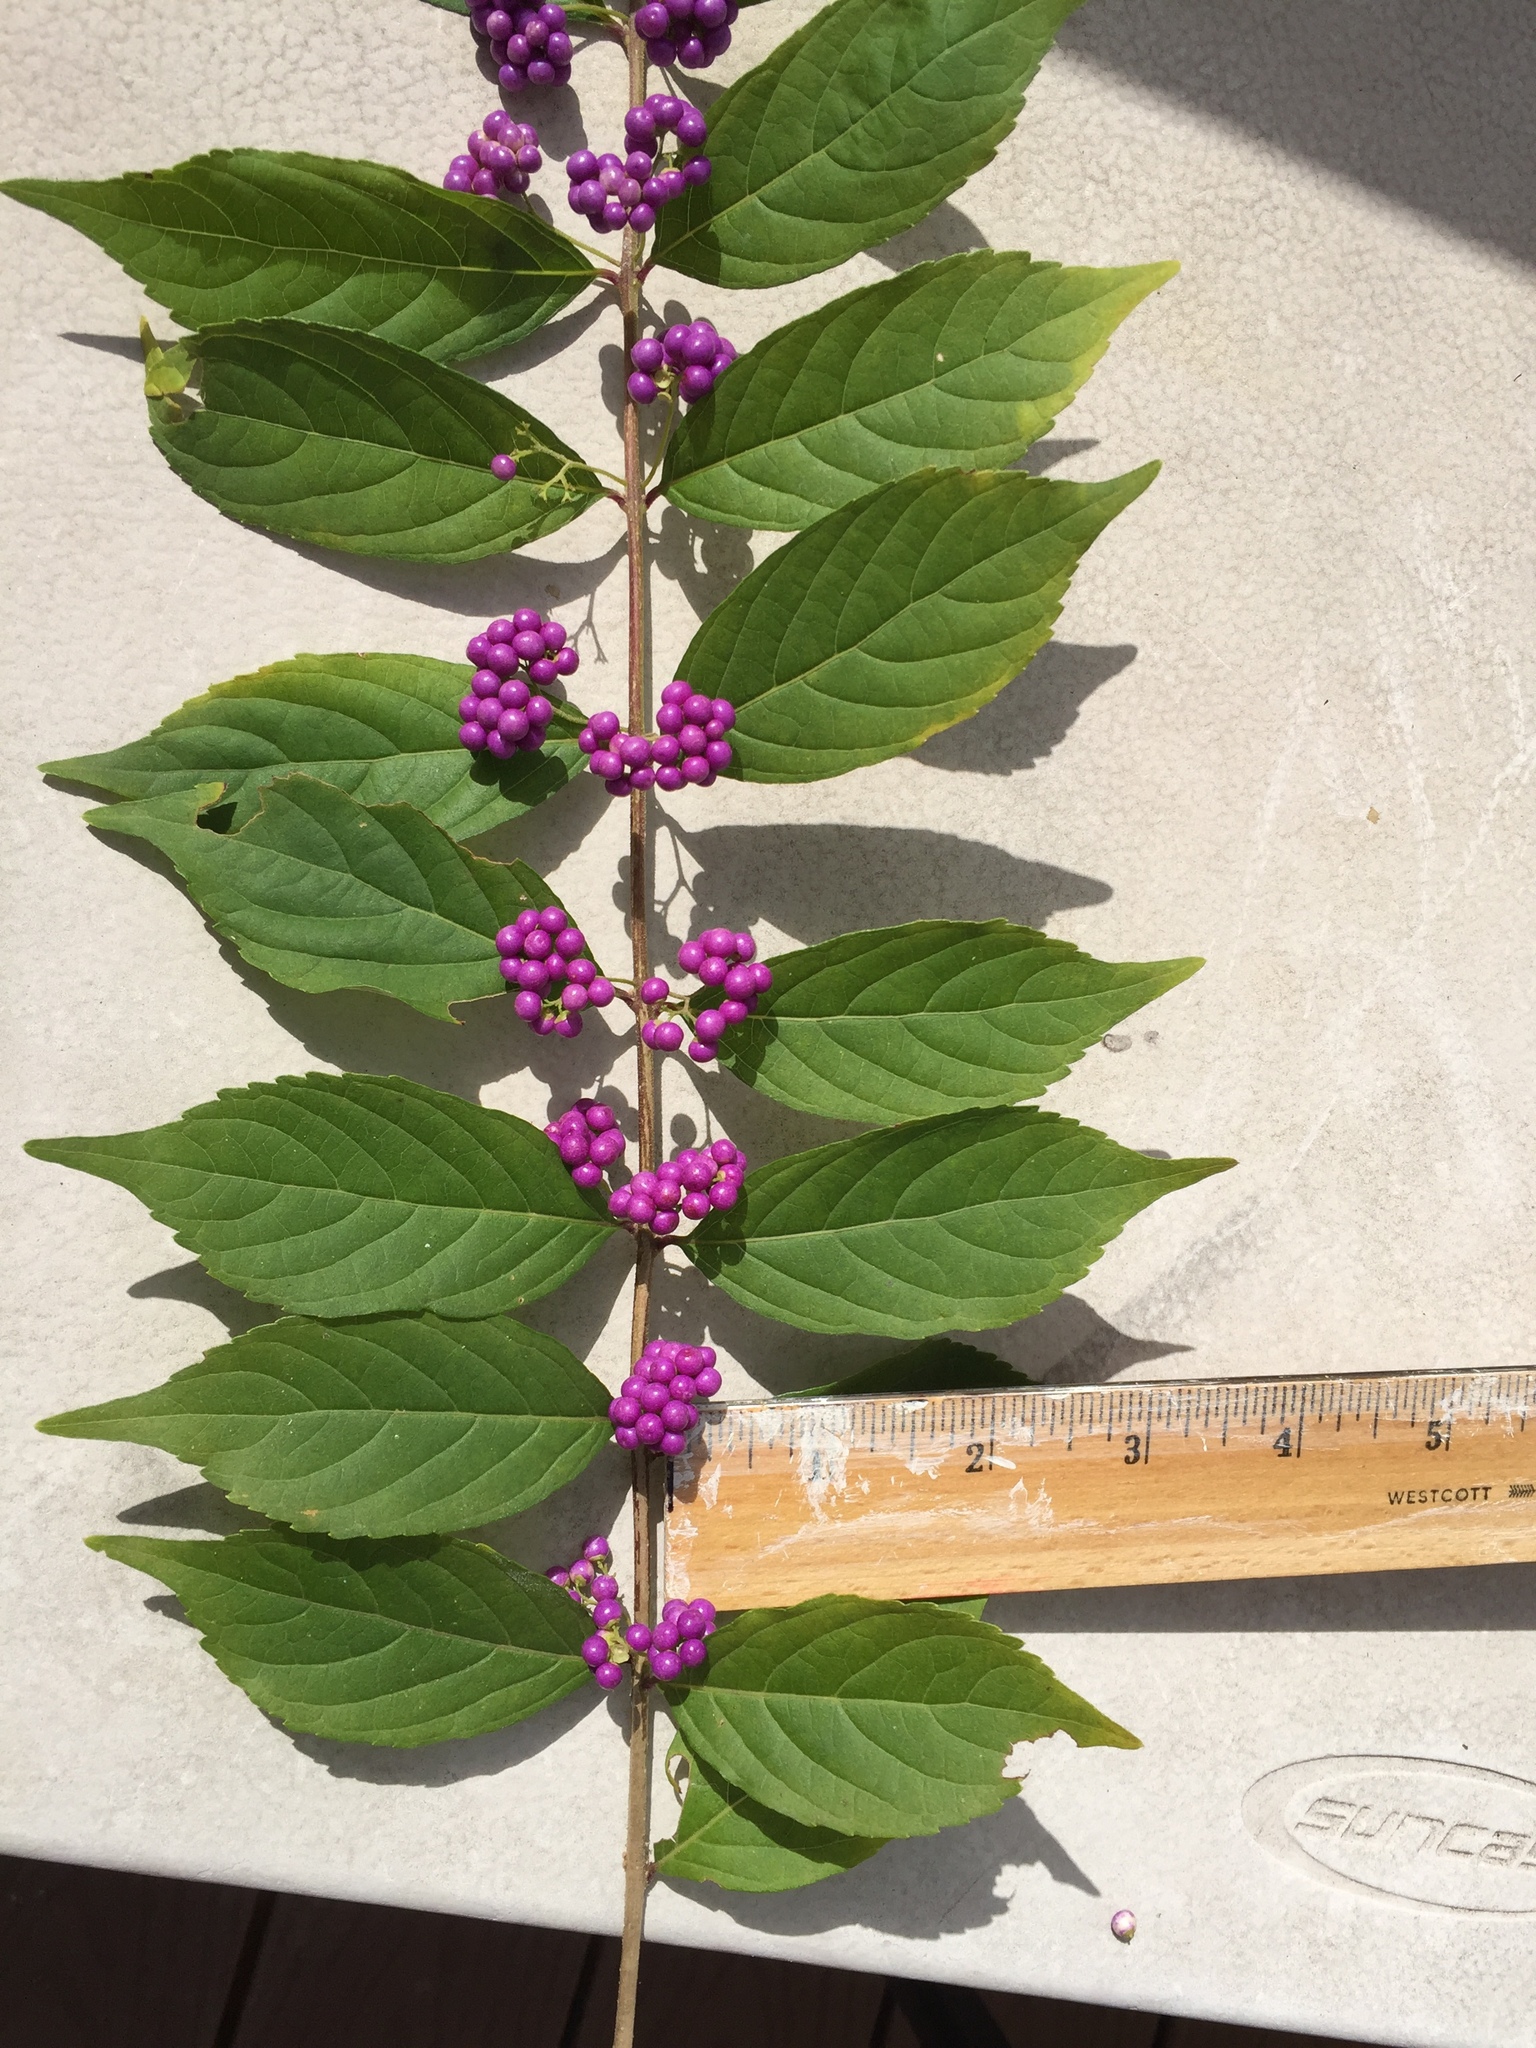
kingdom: Plantae
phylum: Tracheophyta
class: Magnoliopsida
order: Lamiales
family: Lamiaceae
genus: Callicarpa
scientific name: Callicarpa dichotoma
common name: Purple beauty-berry
